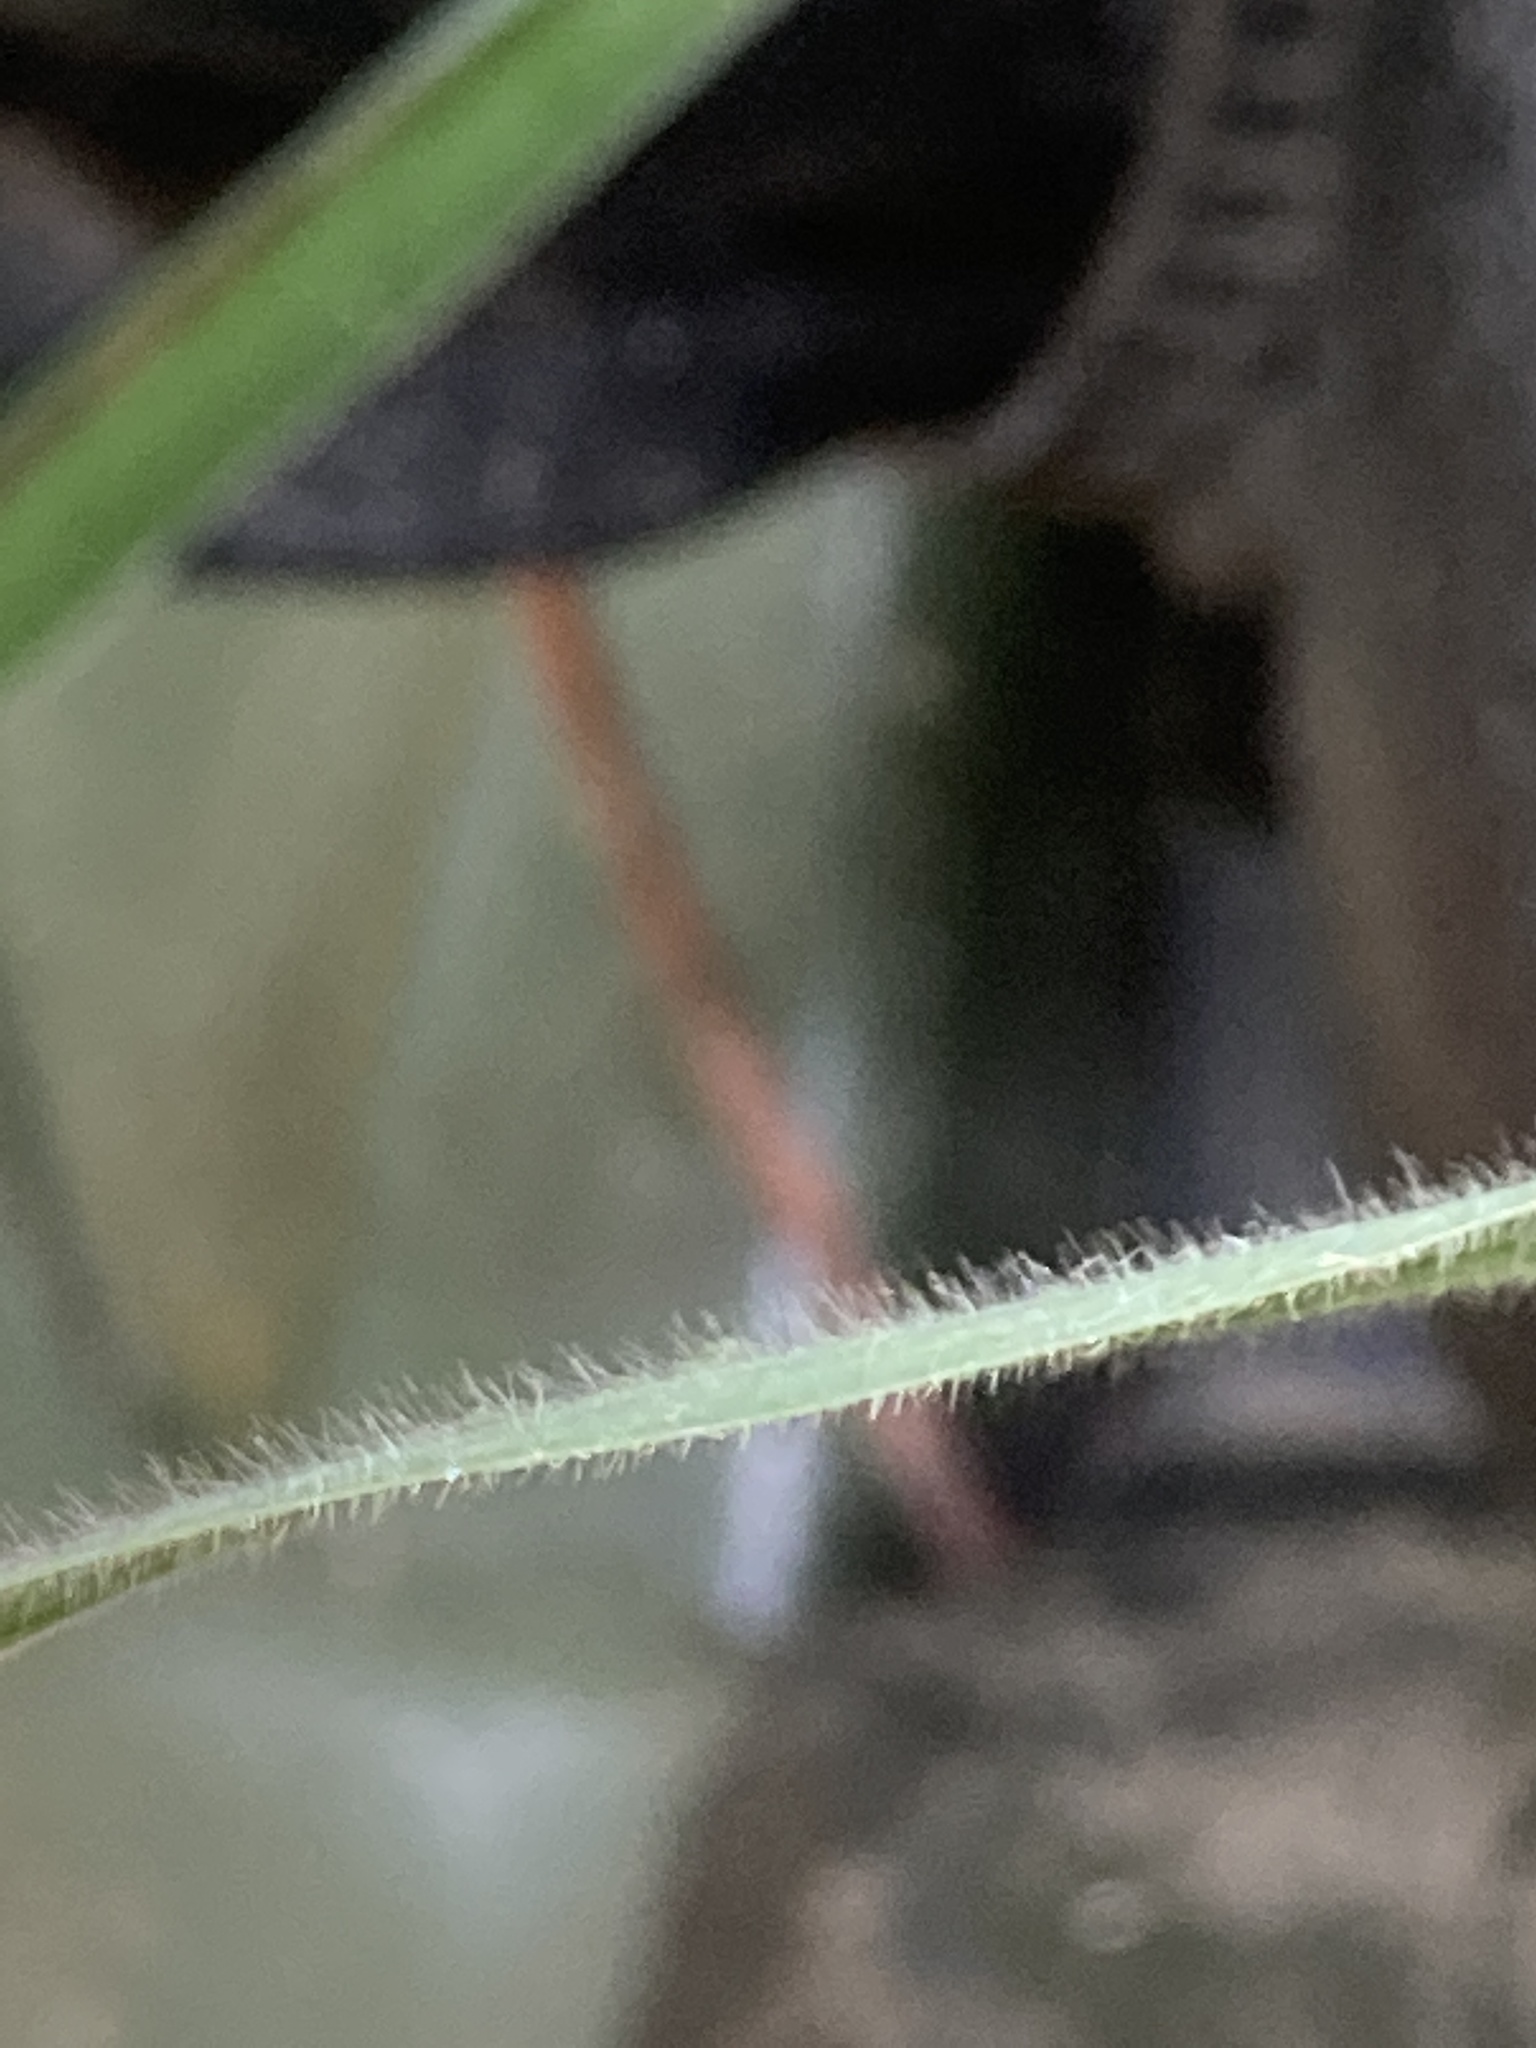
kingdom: Plantae
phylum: Tracheophyta
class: Liliopsida
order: Poales
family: Poaceae
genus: Elymus
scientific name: Elymus virginicus
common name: Common eastern wildrye
